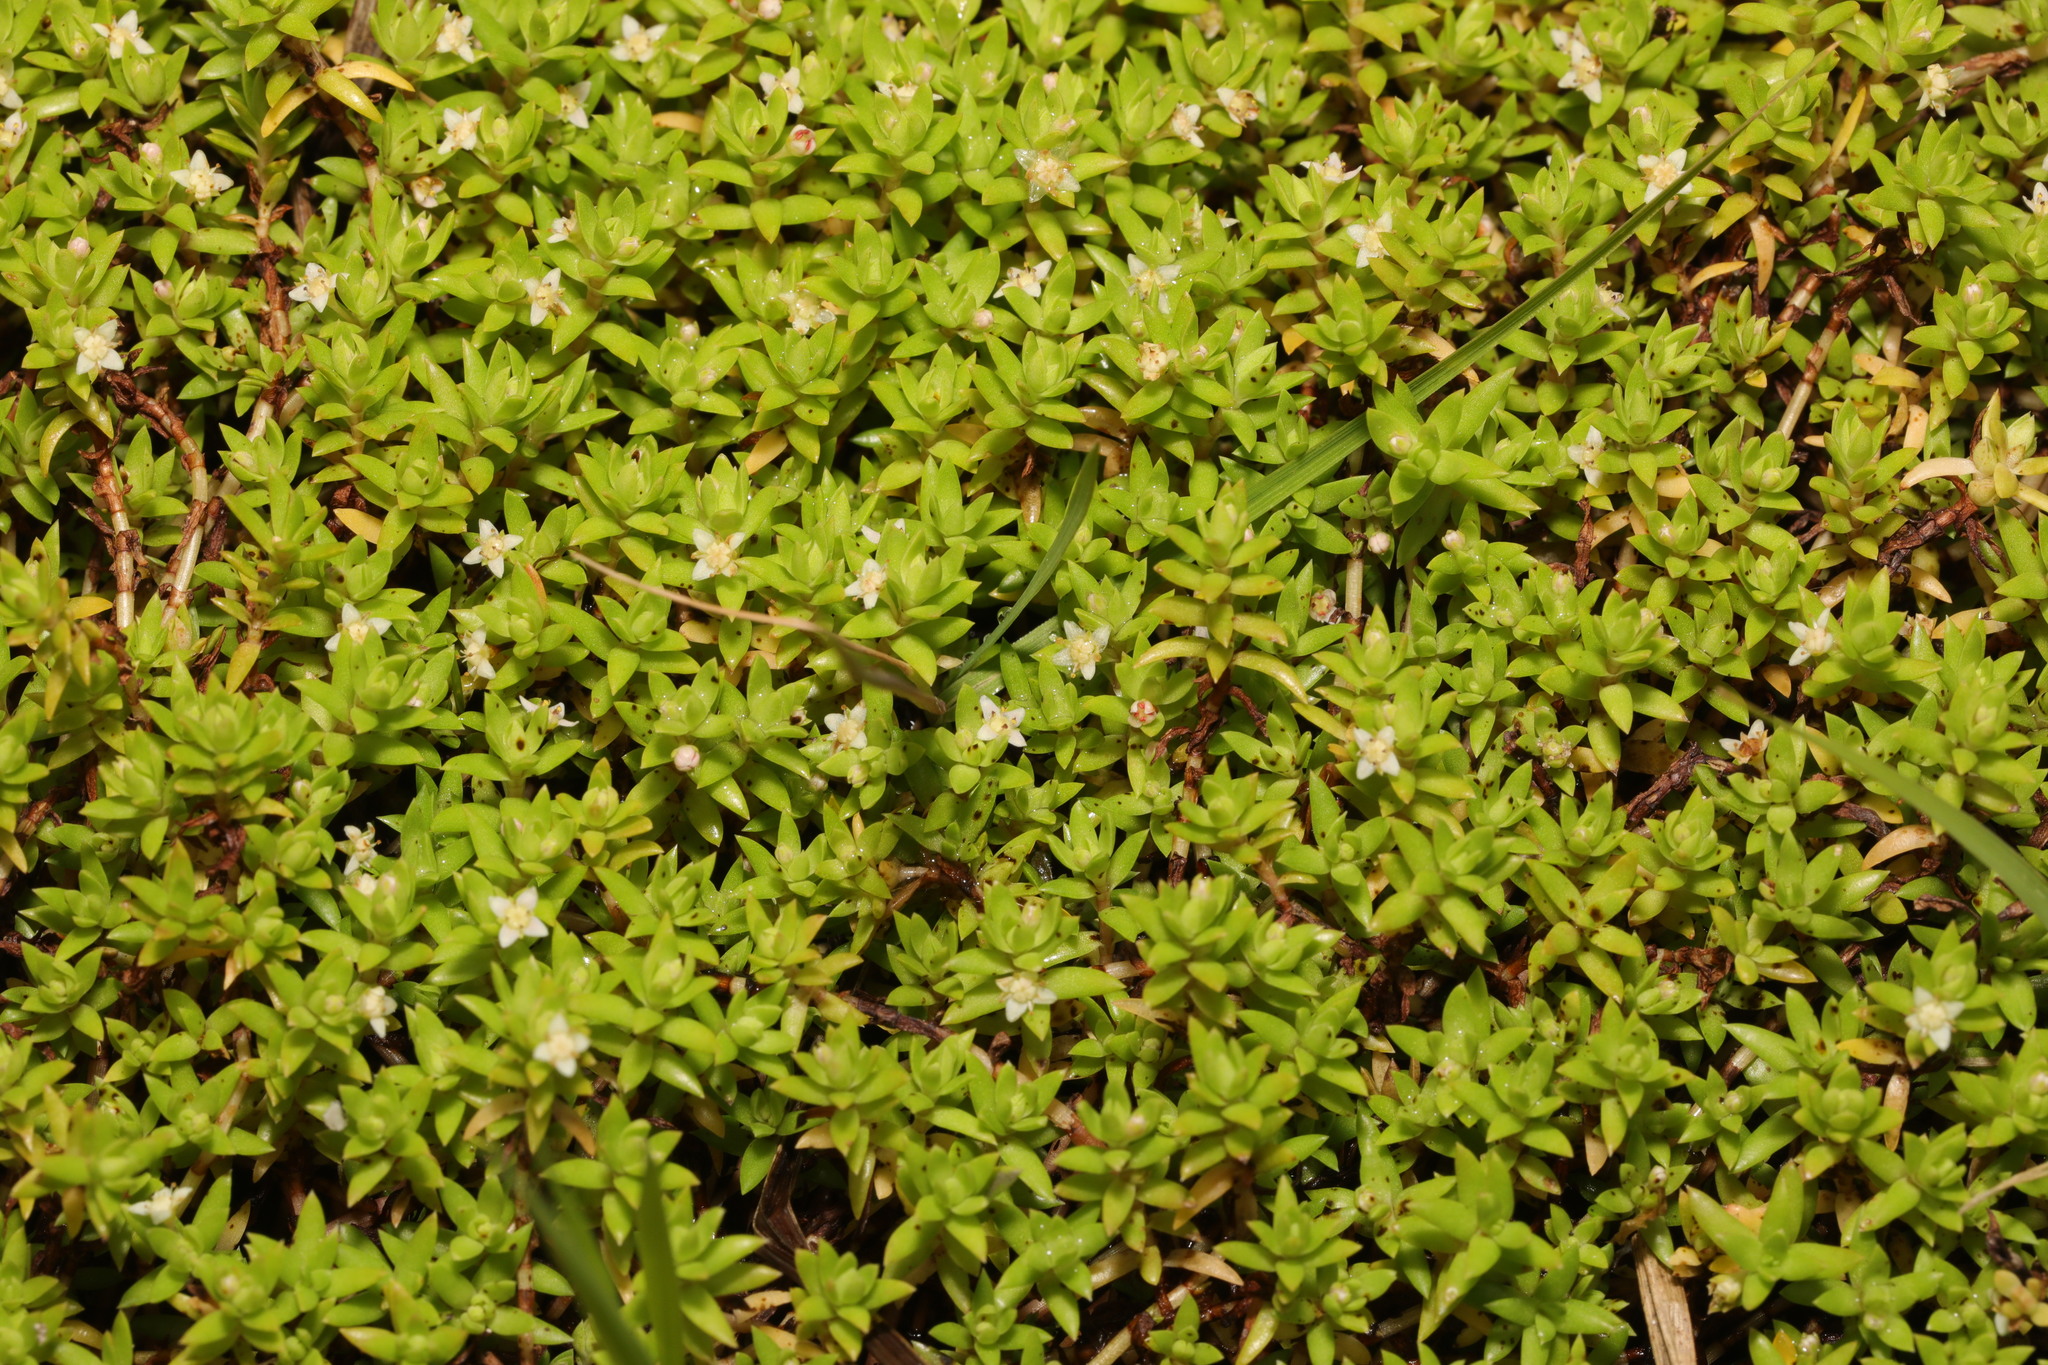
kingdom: Plantae
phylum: Tracheophyta
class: Magnoliopsida
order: Saxifragales
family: Crassulaceae
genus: Crassula
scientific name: Crassula helmsii
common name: New zealand pigmyweed
